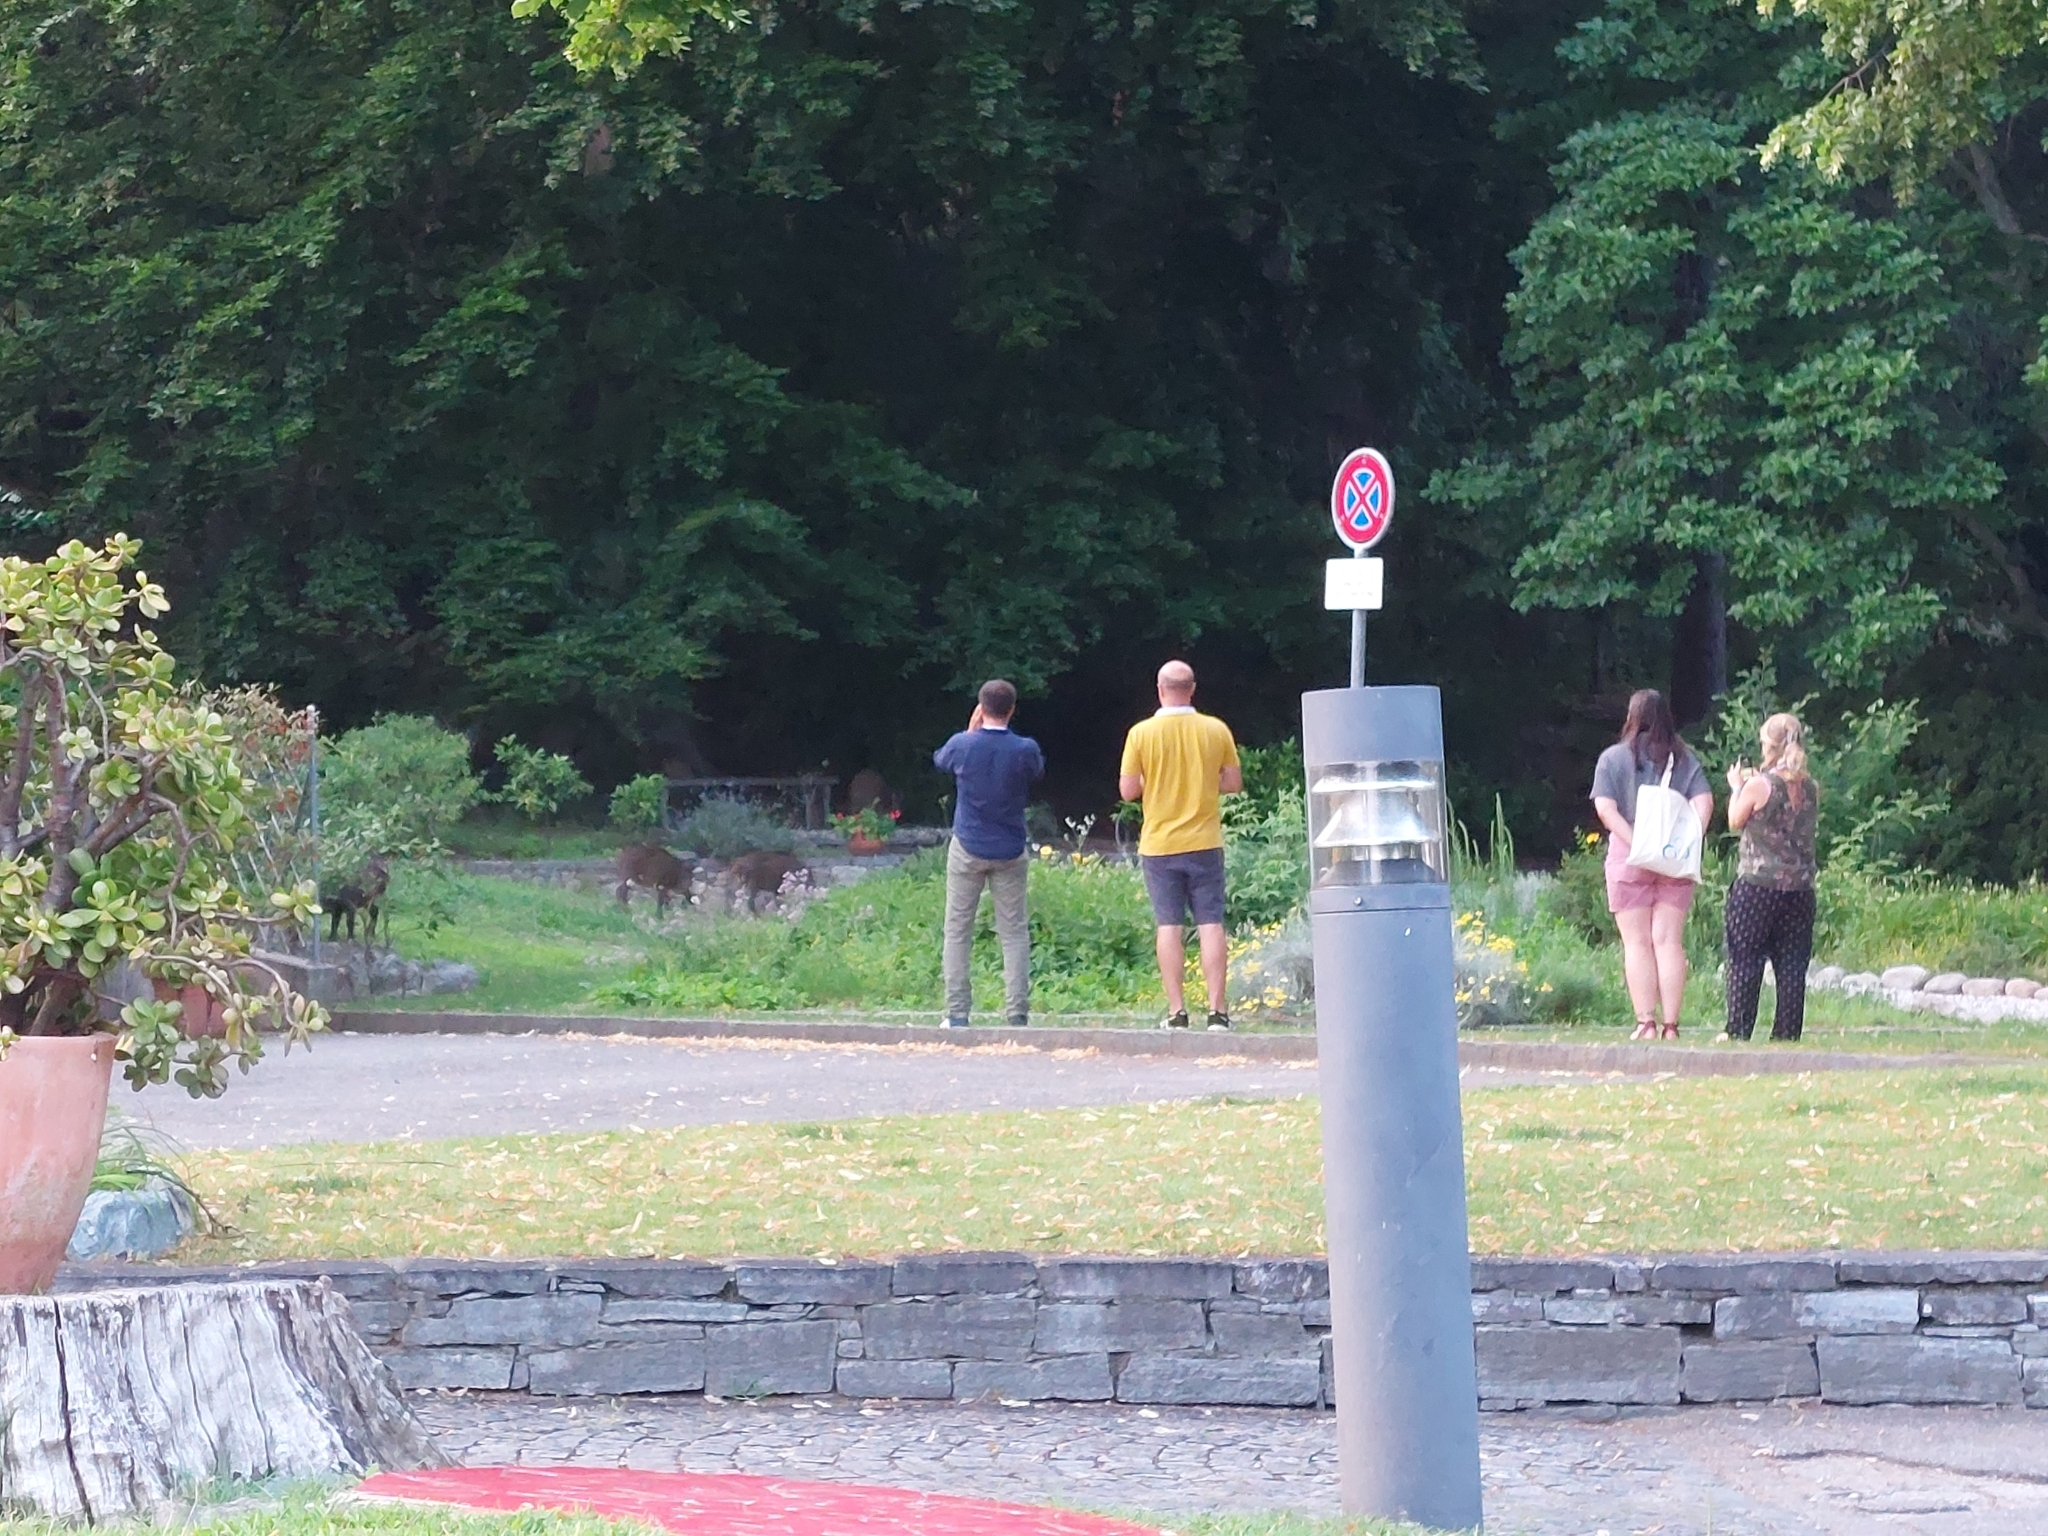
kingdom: Animalia
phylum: Chordata
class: Mammalia
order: Artiodactyla
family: Suidae
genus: Sus
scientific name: Sus scrofa
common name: Wild boar
